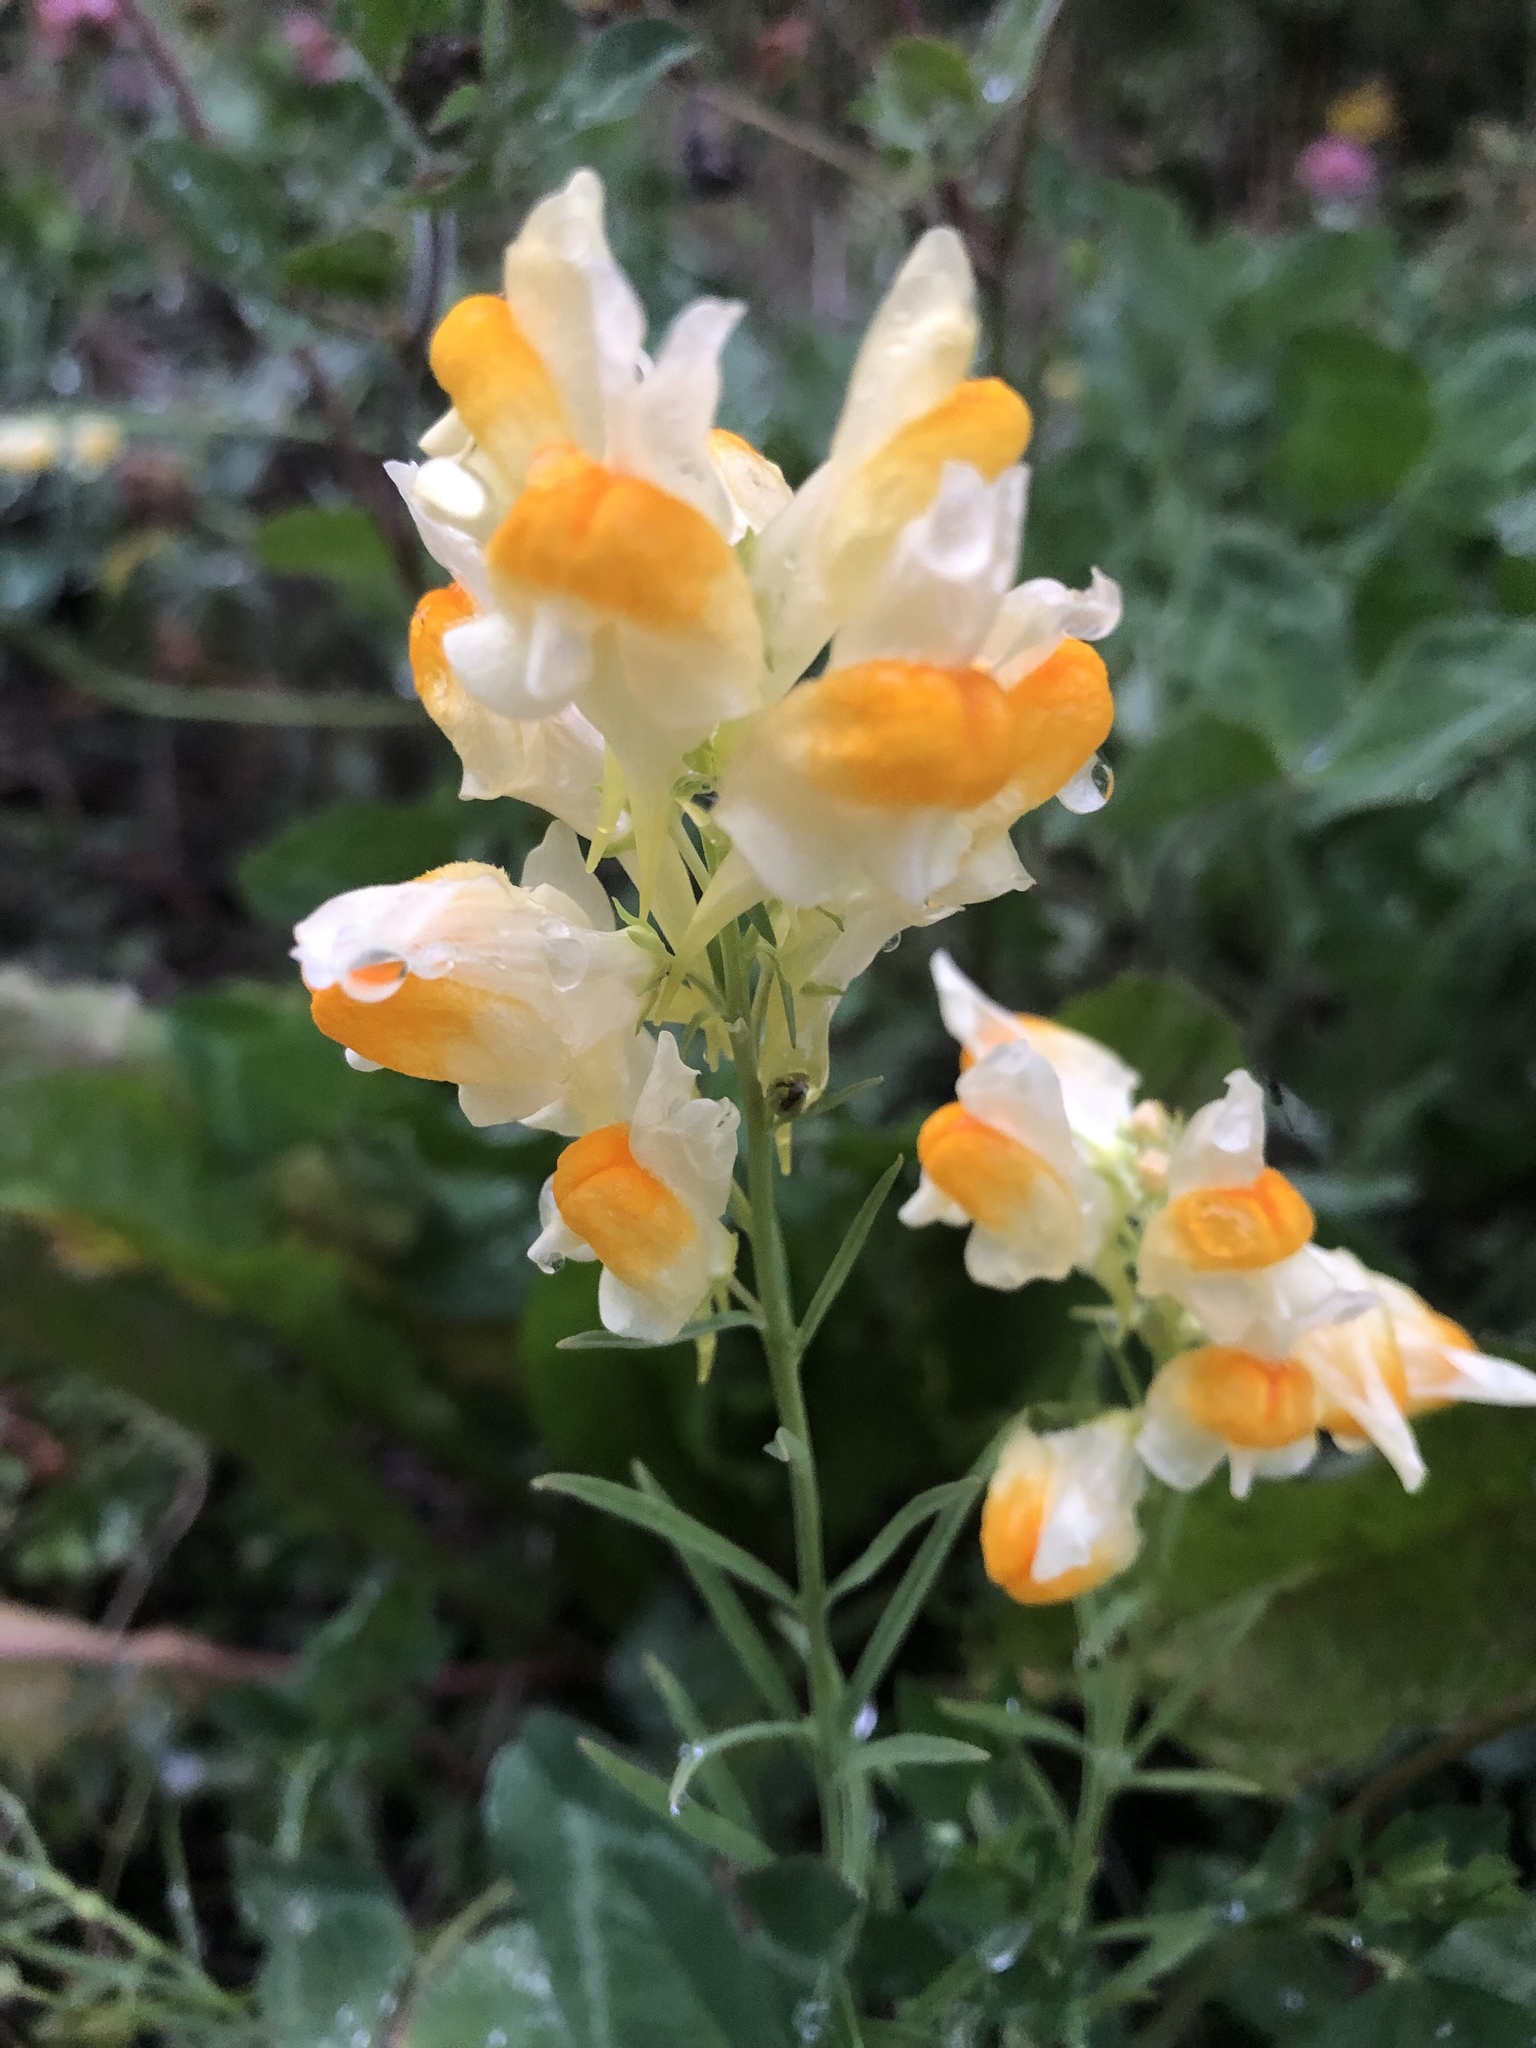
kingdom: Plantae
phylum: Tracheophyta
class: Magnoliopsida
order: Lamiales
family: Plantaginaceae
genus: Linaria
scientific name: Linaria vulgaris
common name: Butter and eggs
